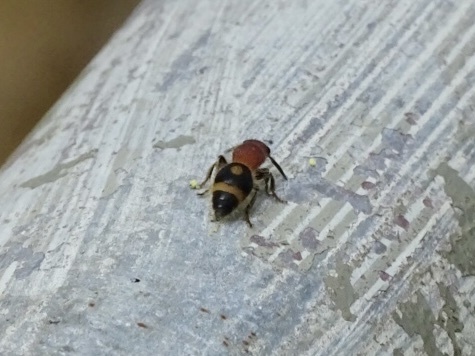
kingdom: Animalia
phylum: Arthropoda
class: Insecta
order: Hymenoptera
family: Mutillidae
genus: Odontomutilla
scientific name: Odontomutilla uranioides
